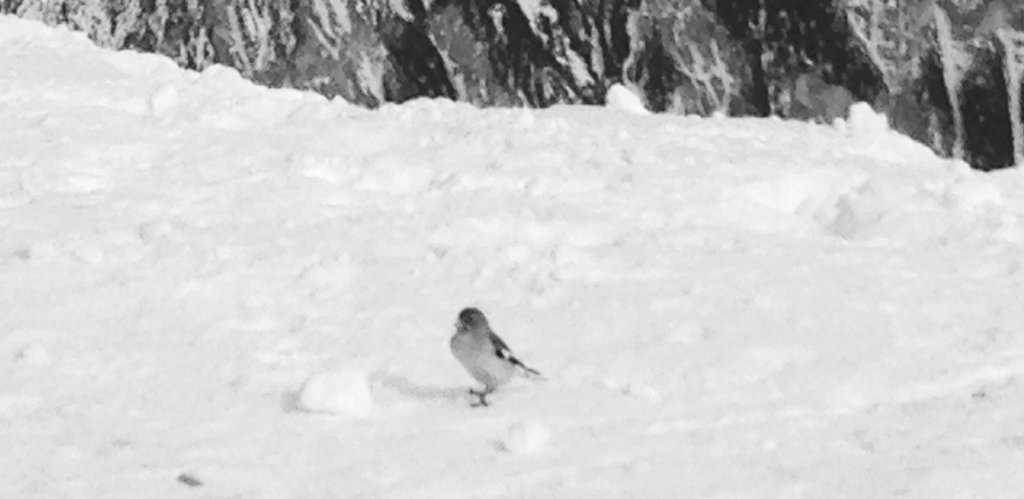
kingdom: Animalia
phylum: Chordata
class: Aves
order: Passeriformes
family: Passeridae
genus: Montifringilla
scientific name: Montifringilla nivalis
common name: White-winged snowfinch
